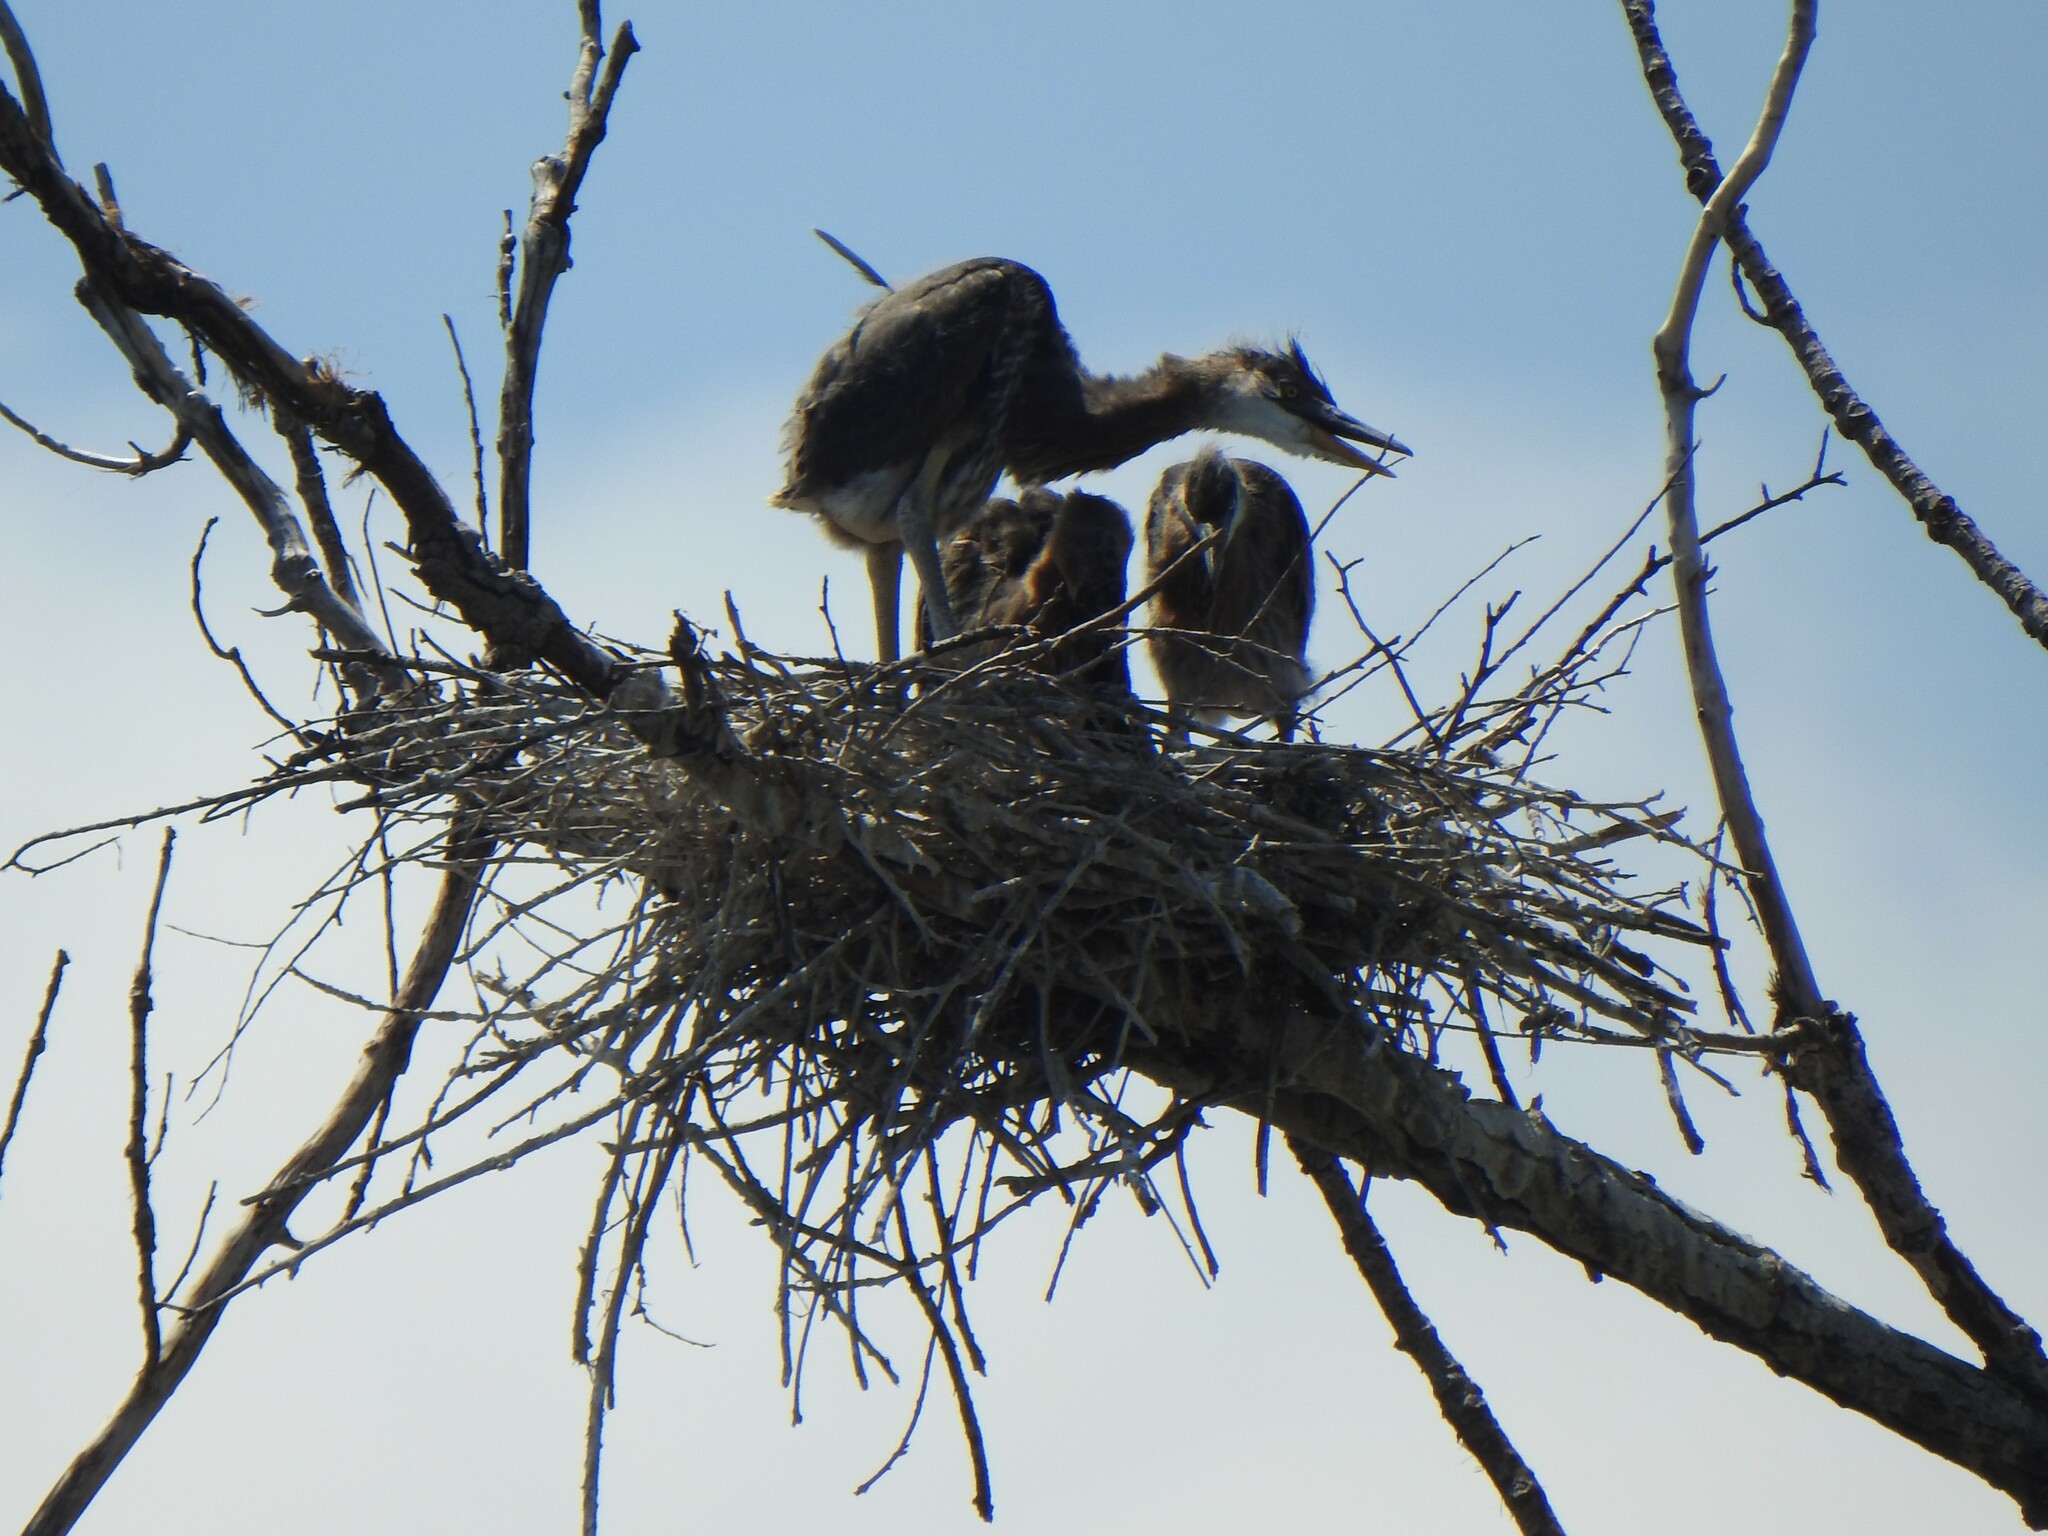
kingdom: Animalia
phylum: Chordata
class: Aves
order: Pelecaniformes
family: Ardeidae
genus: Ardea
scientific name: Ardea herodias
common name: Great blue heron
